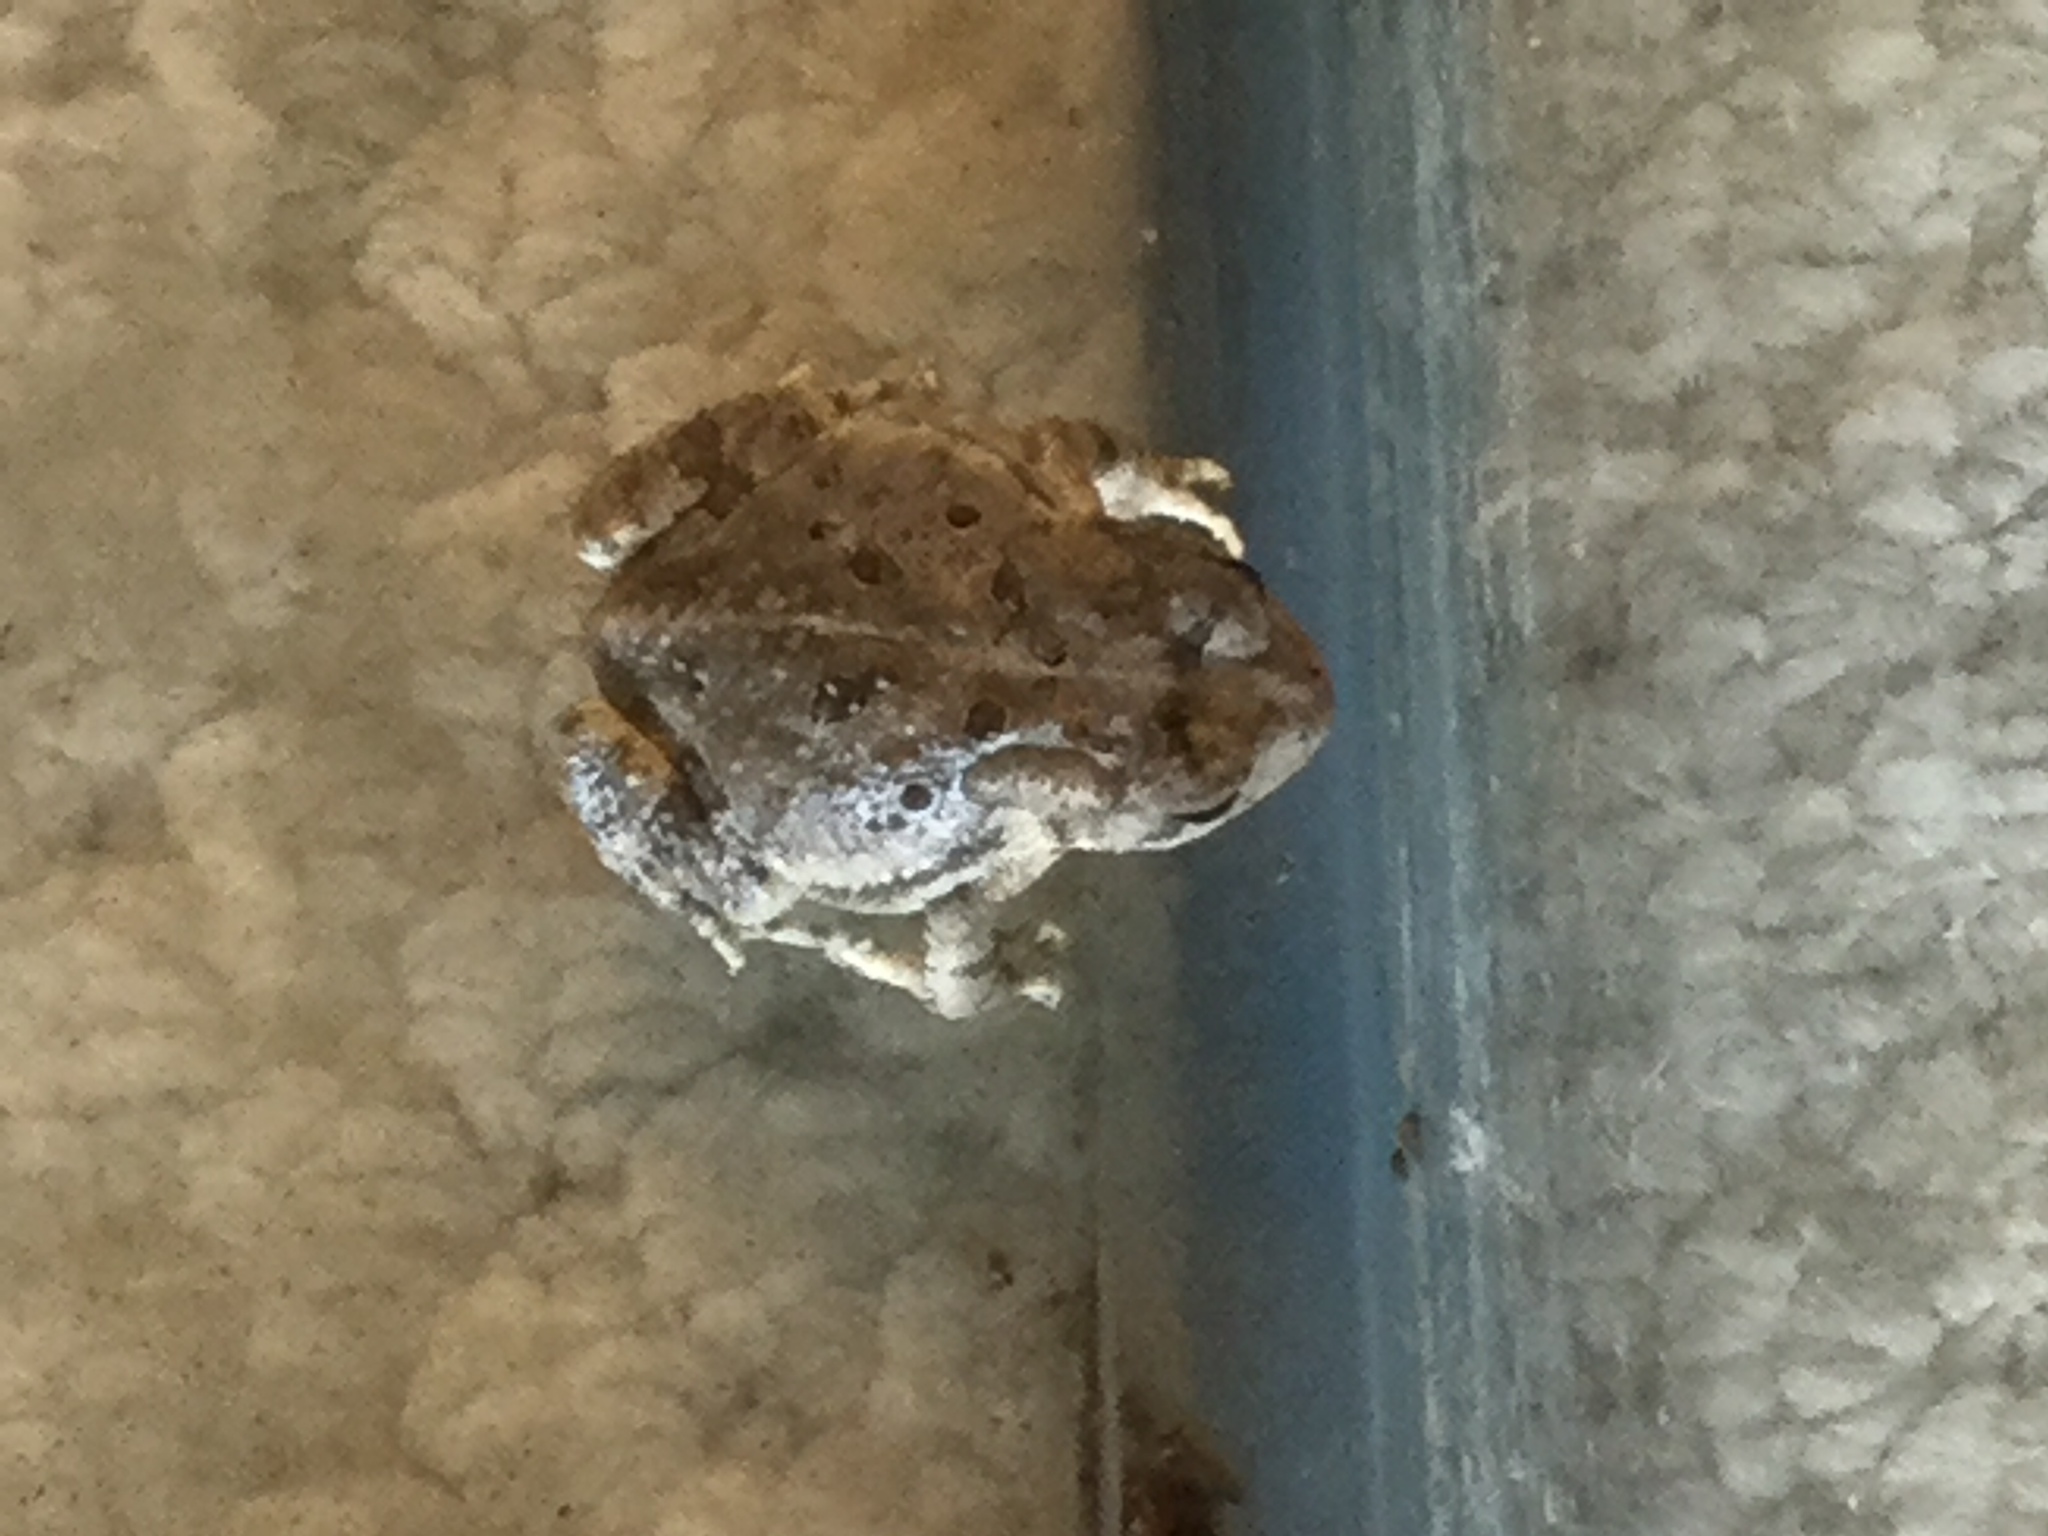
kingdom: Animalia
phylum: Chordata
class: Amphibia
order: Anura
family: Bufonidae
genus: Anaxyrus
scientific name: Anaxyrus fowleri
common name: Fowler's toad
